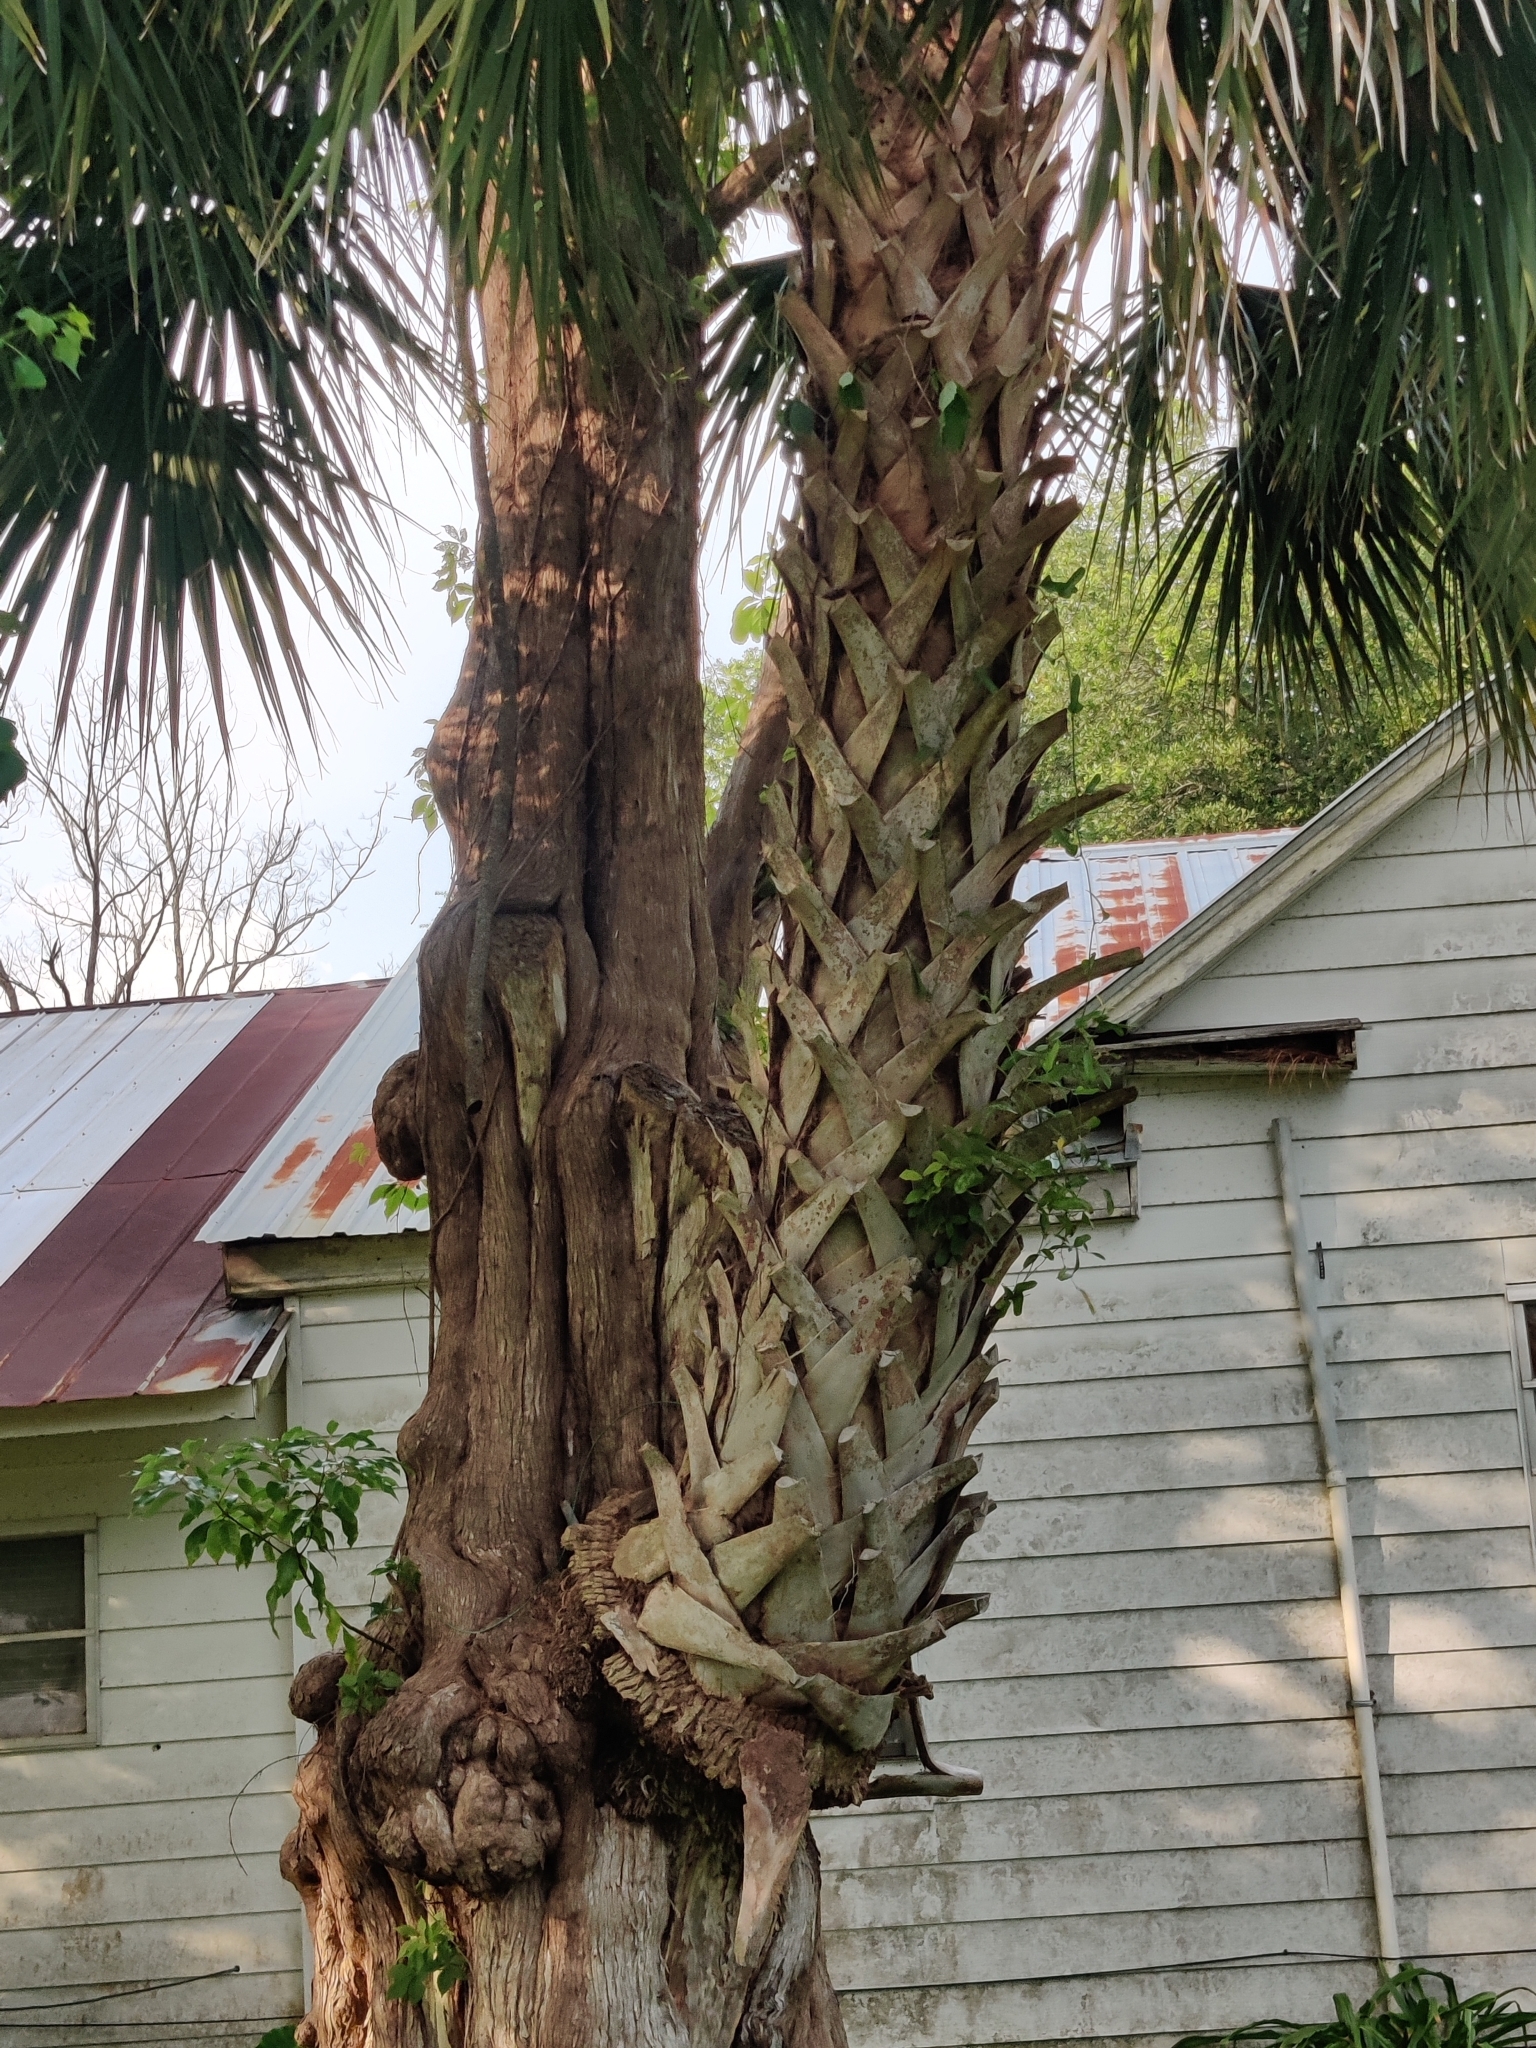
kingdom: Plantae
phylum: Tracheophyta
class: Liliopsida
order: Arecales
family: Arecaceae
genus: Sabal
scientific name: Sabal palmetto
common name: Blue palmetto
